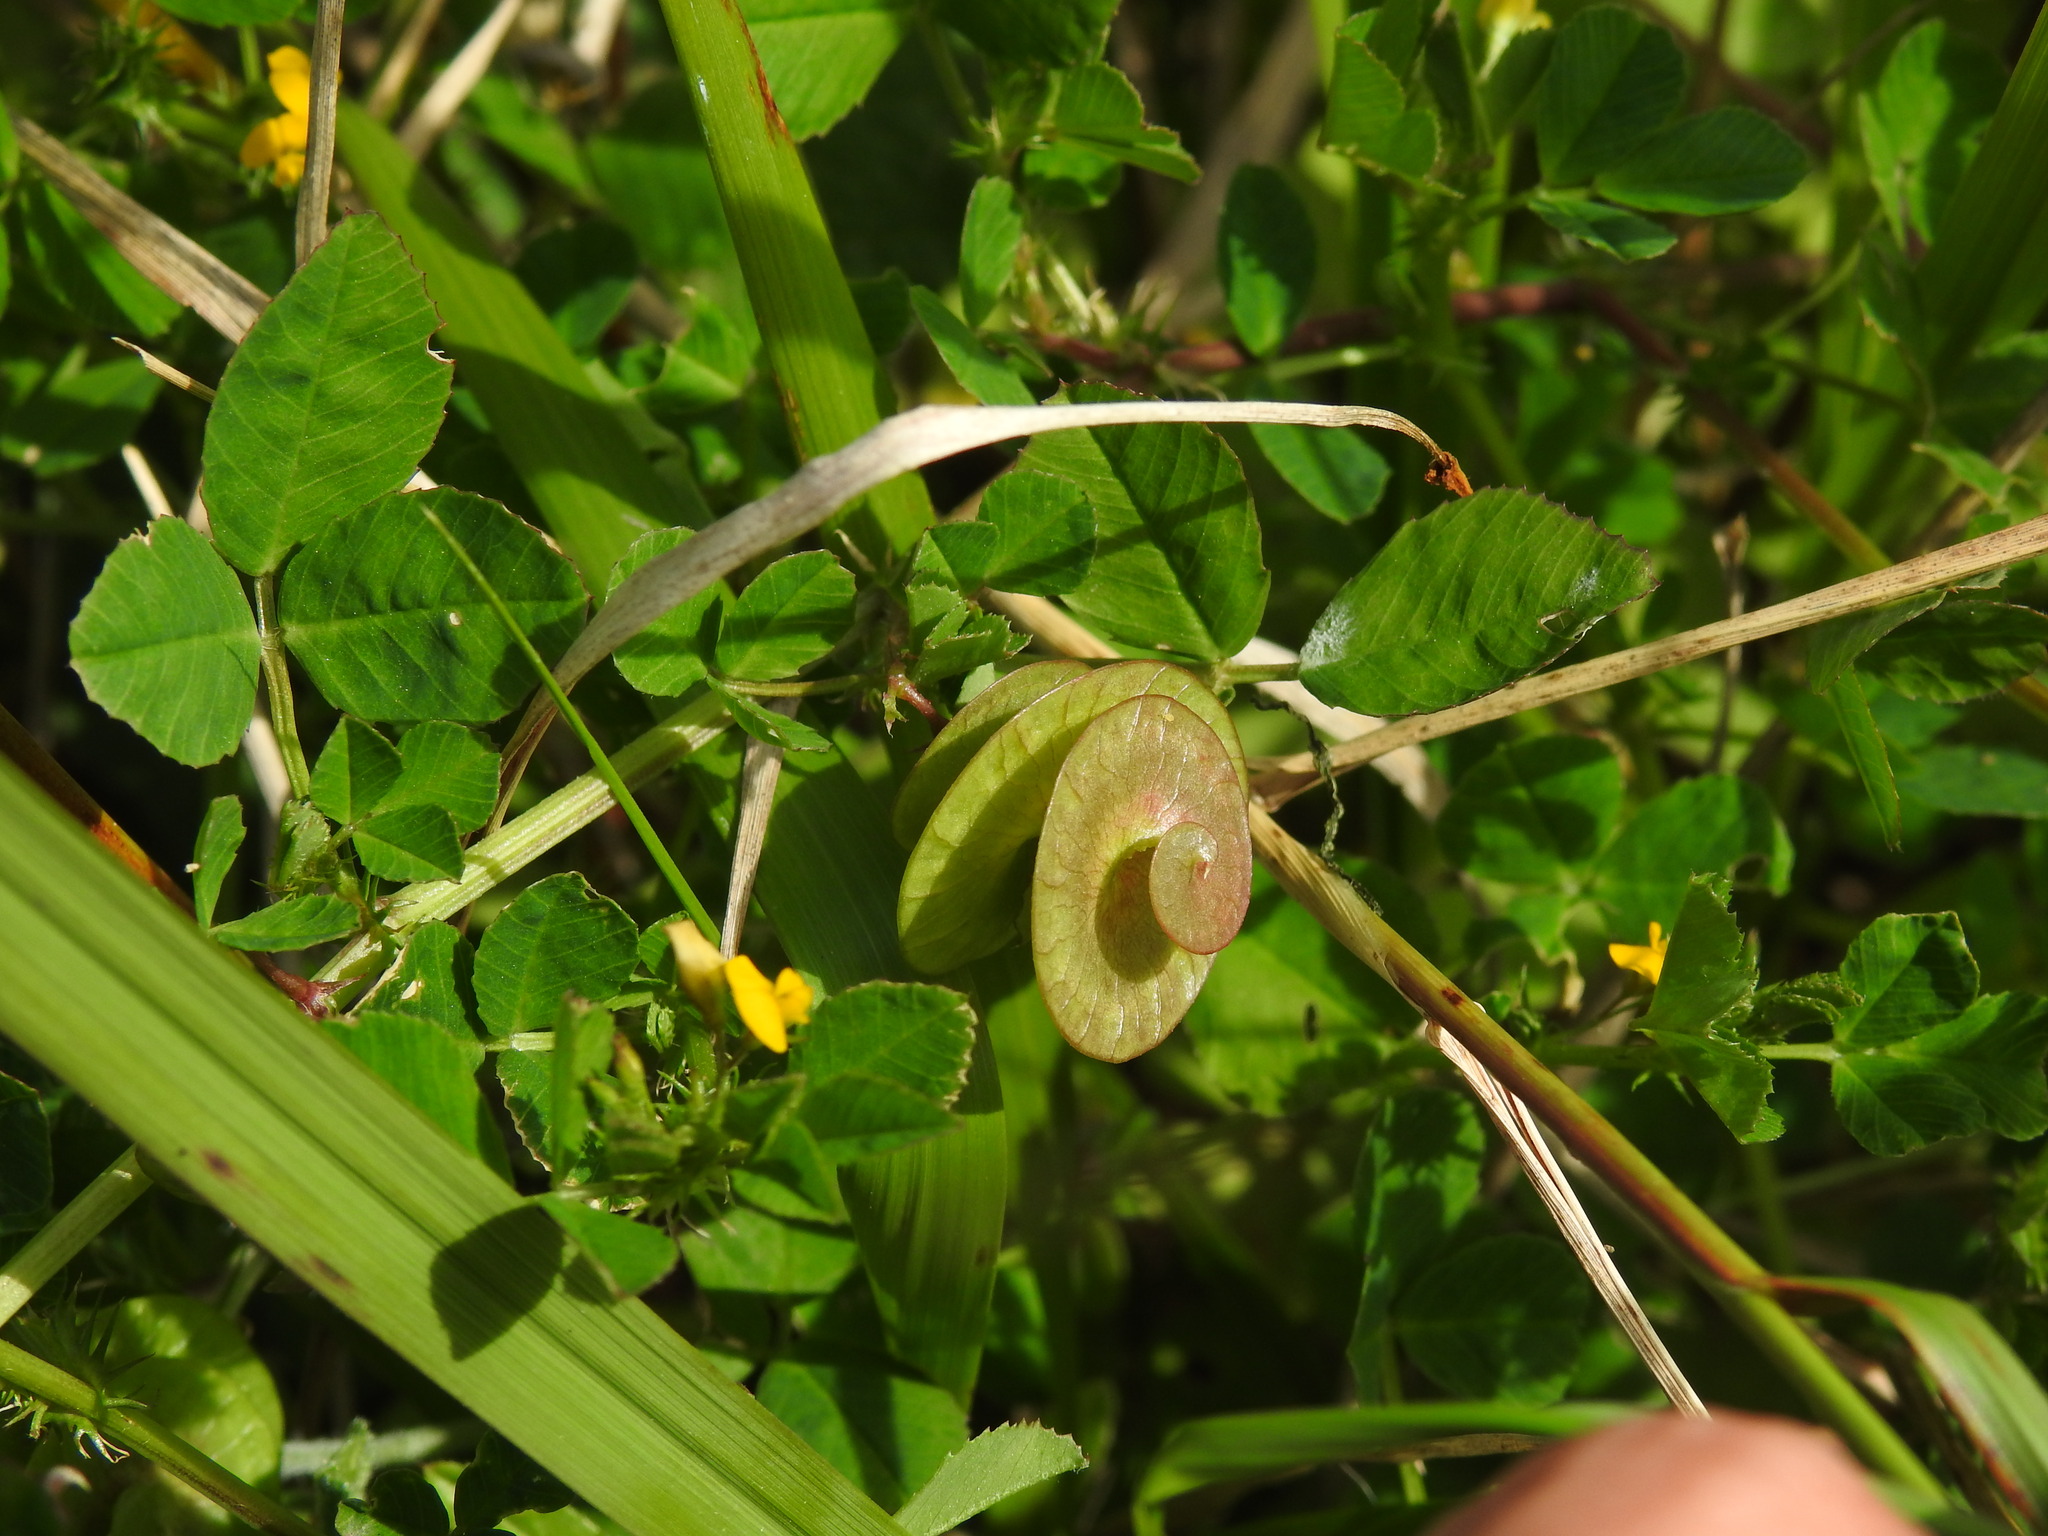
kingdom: Plantae
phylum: Tracheophyta
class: Magnoliopsida
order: Fabales
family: Fabaceae
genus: Medicago
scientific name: Medicago orbicularis
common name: Button medick
